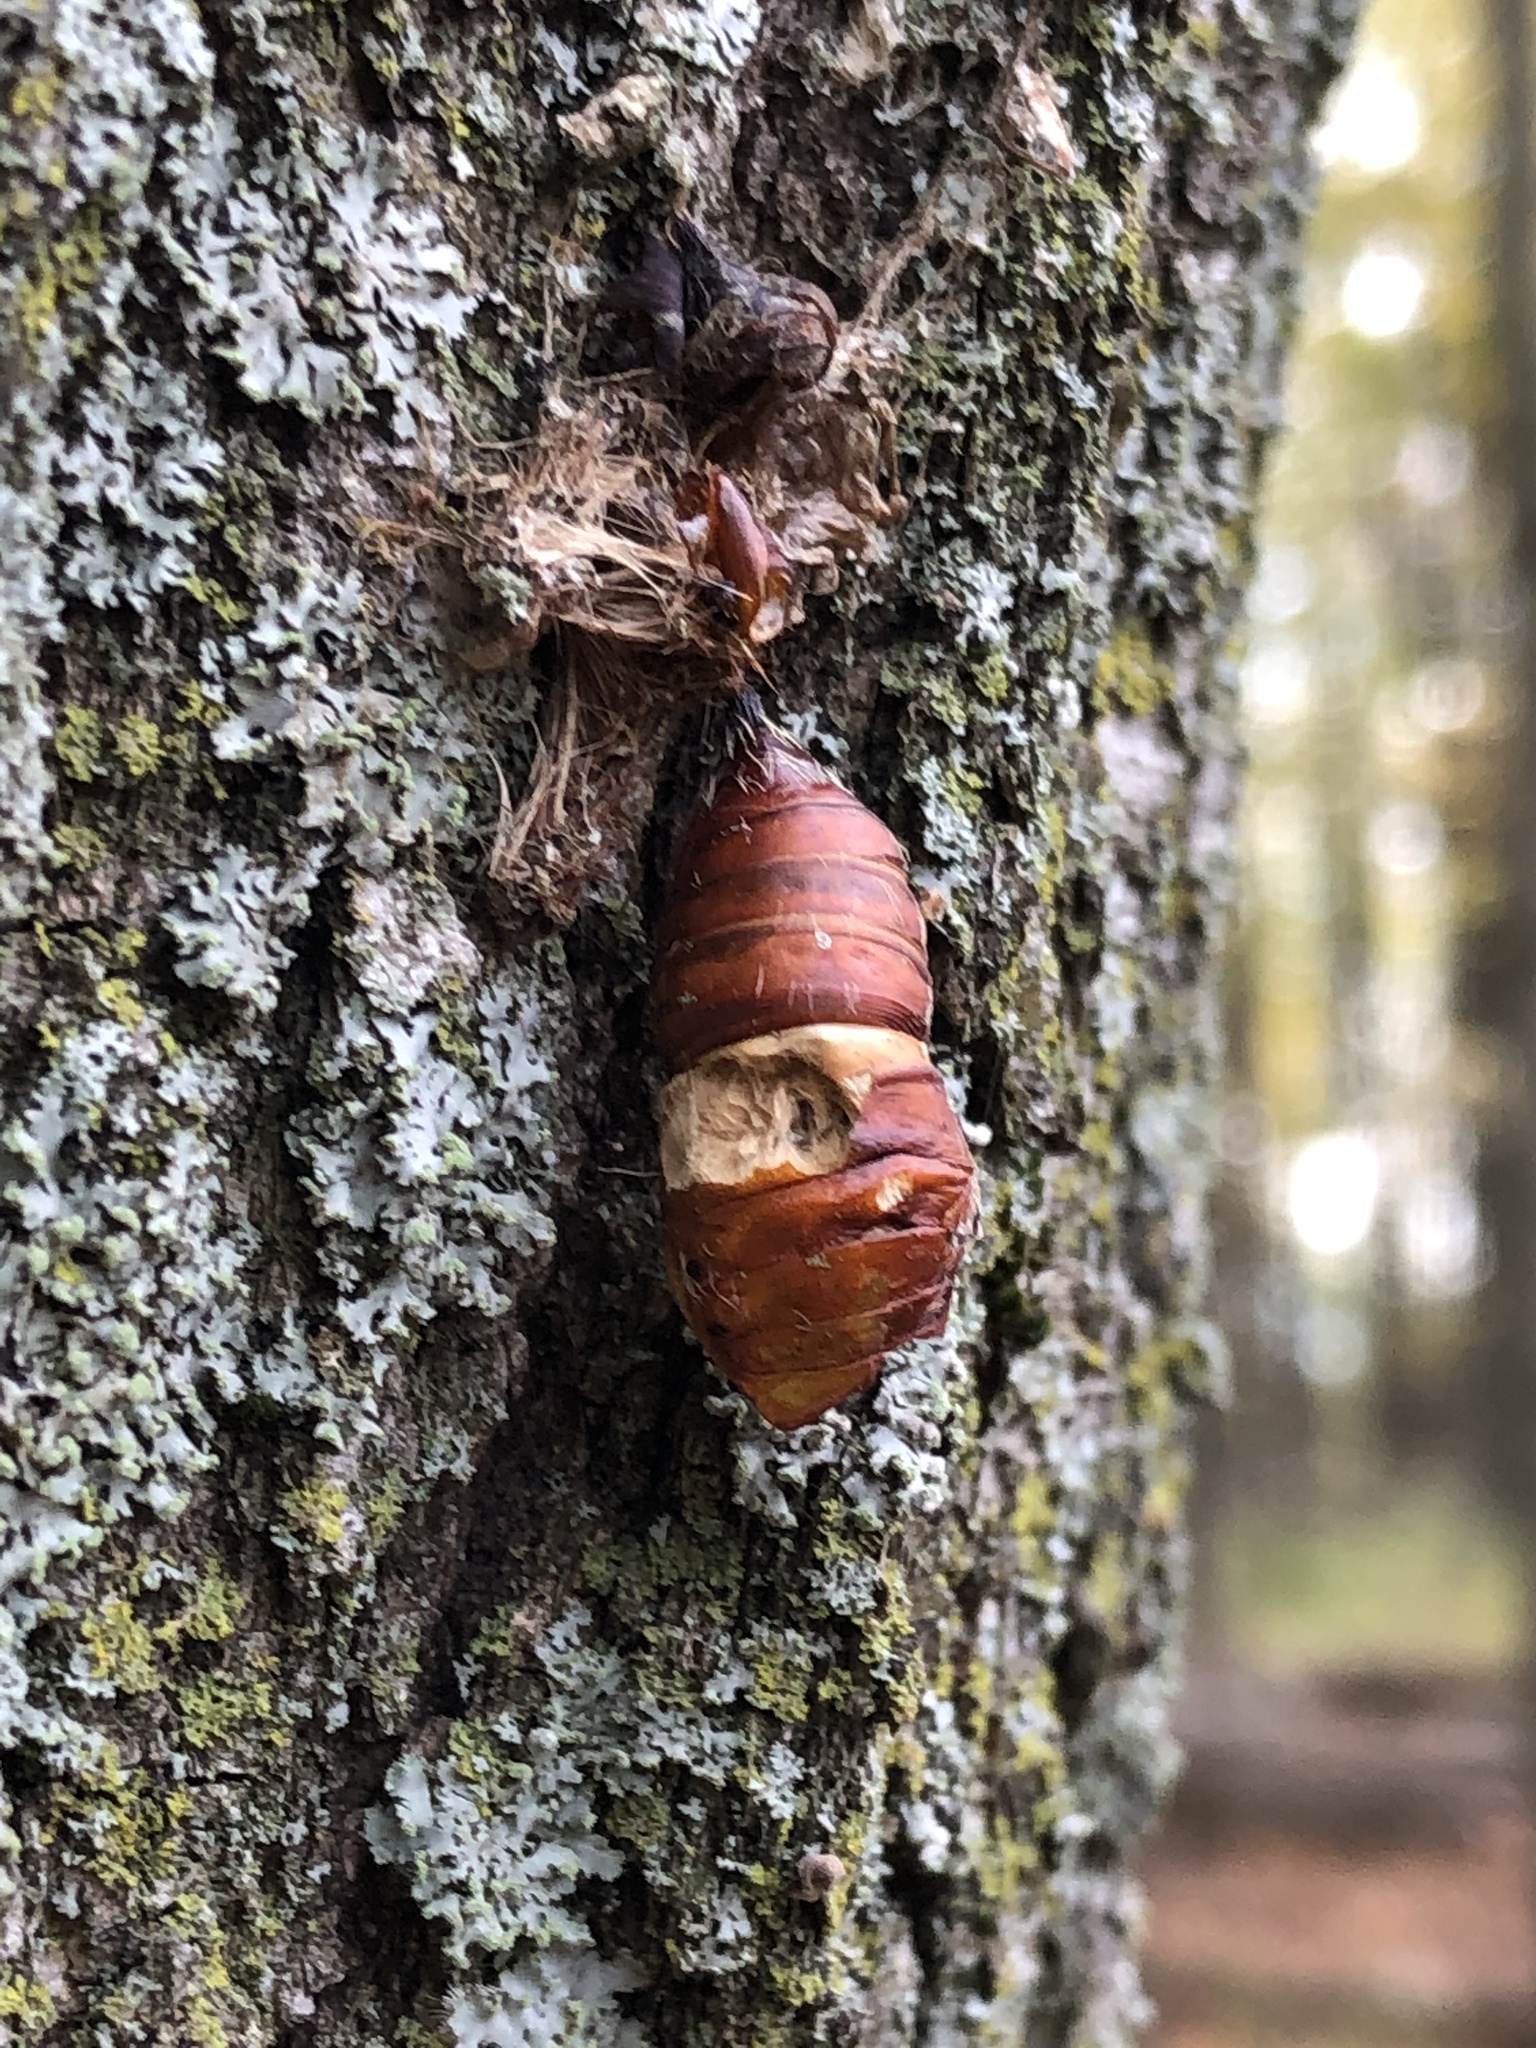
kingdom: Animalia
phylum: Arthropoda
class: Insecta
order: Lepidoptera
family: Erebidae
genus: Lymantria
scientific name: Lymantria dispar
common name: Gypsy moth
